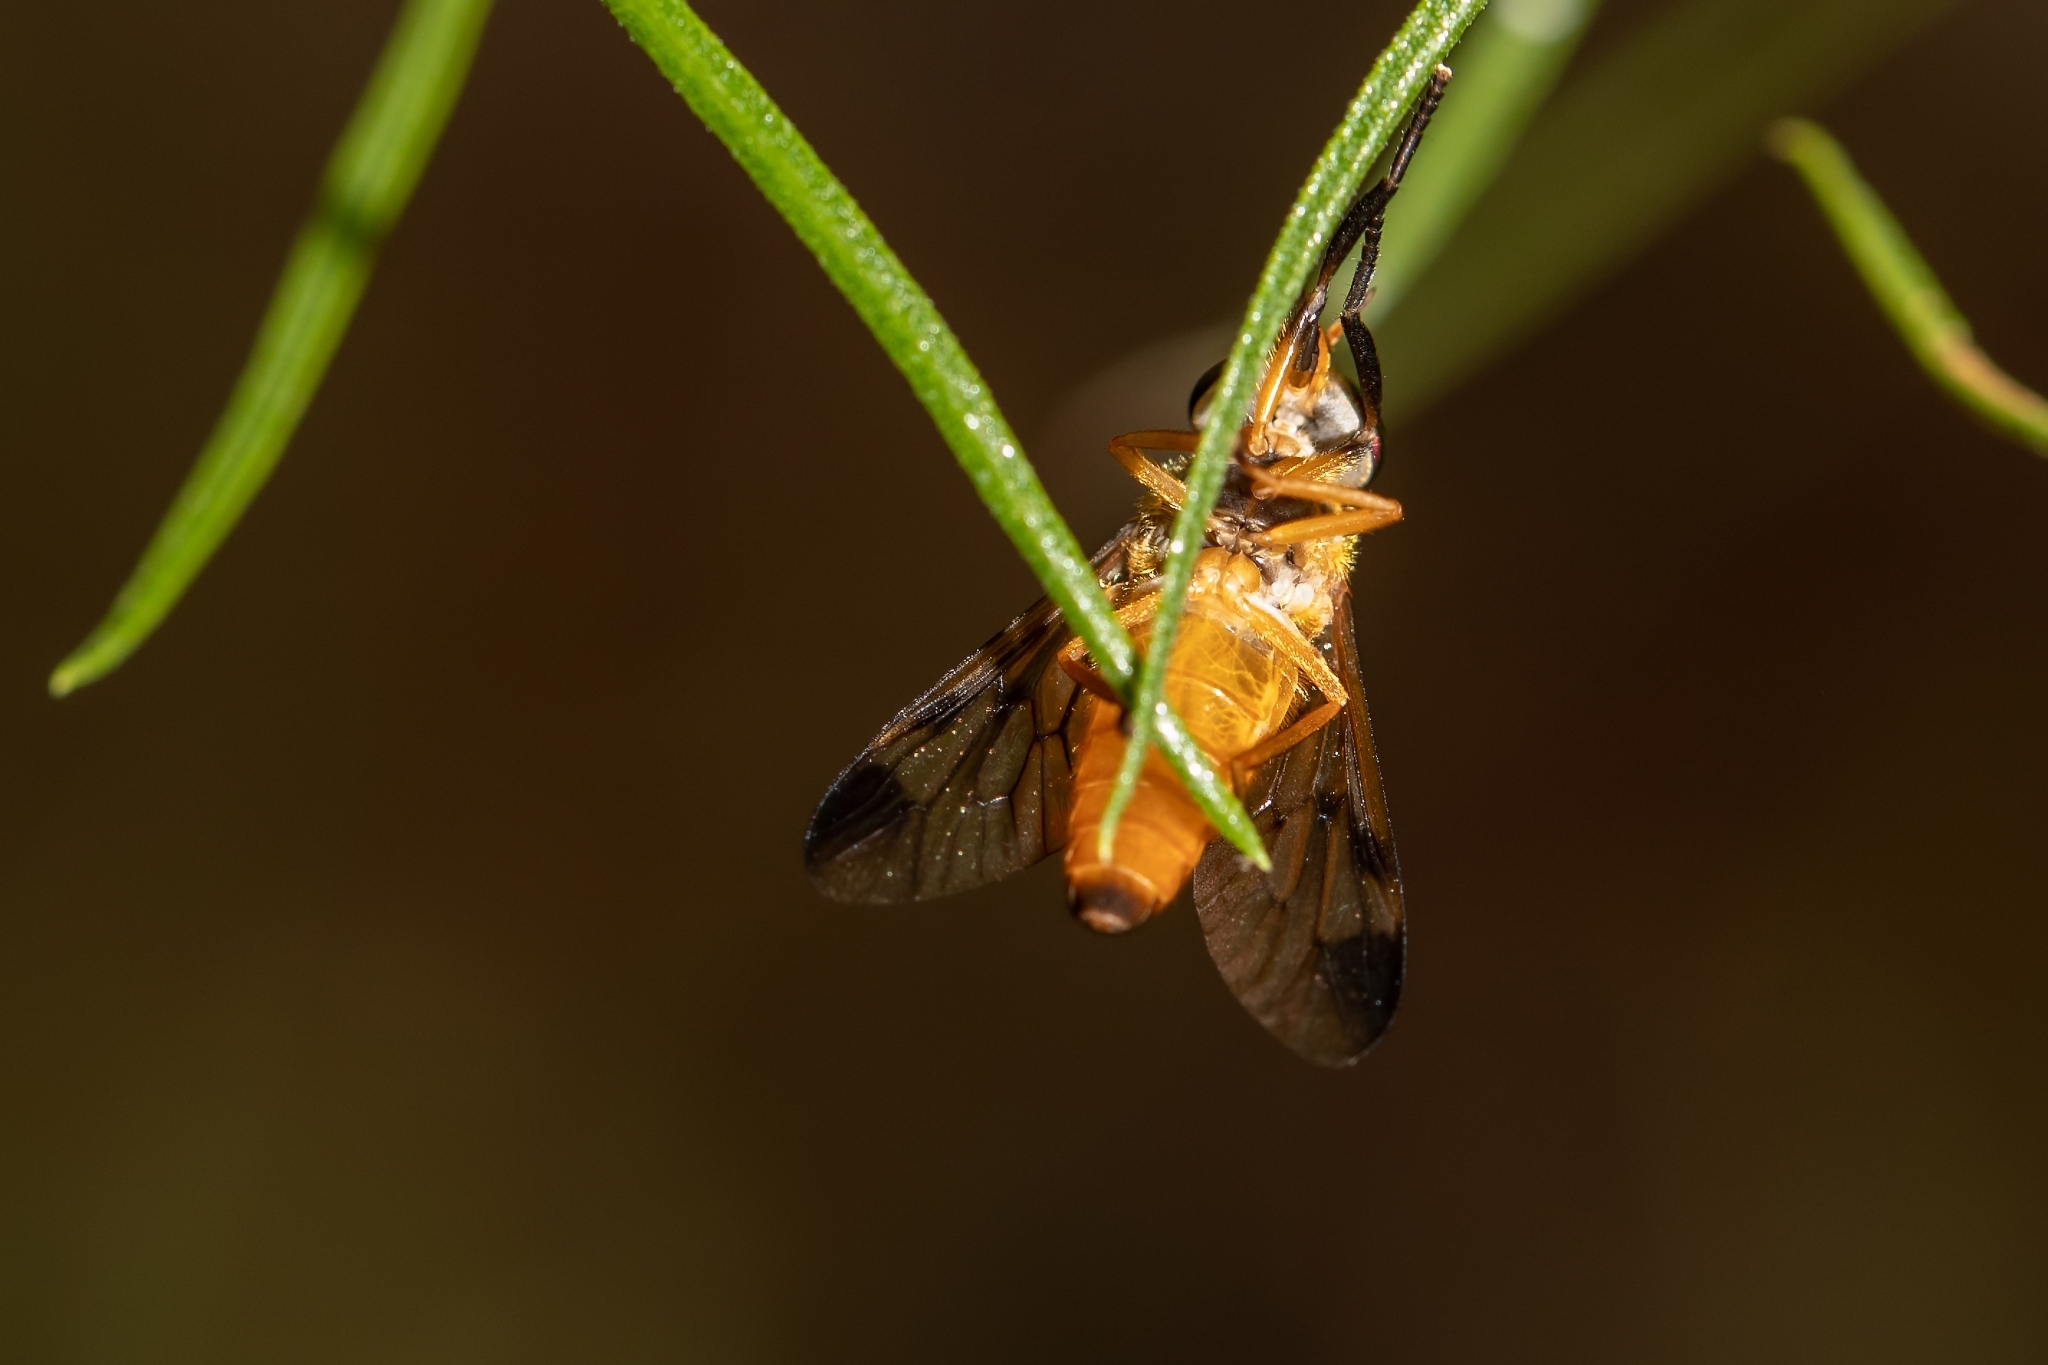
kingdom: Animalia
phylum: Arthropoda
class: Insecta
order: Diptera
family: Tabanidae
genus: Diachlorus
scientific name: Diachlorus ferrugatus
